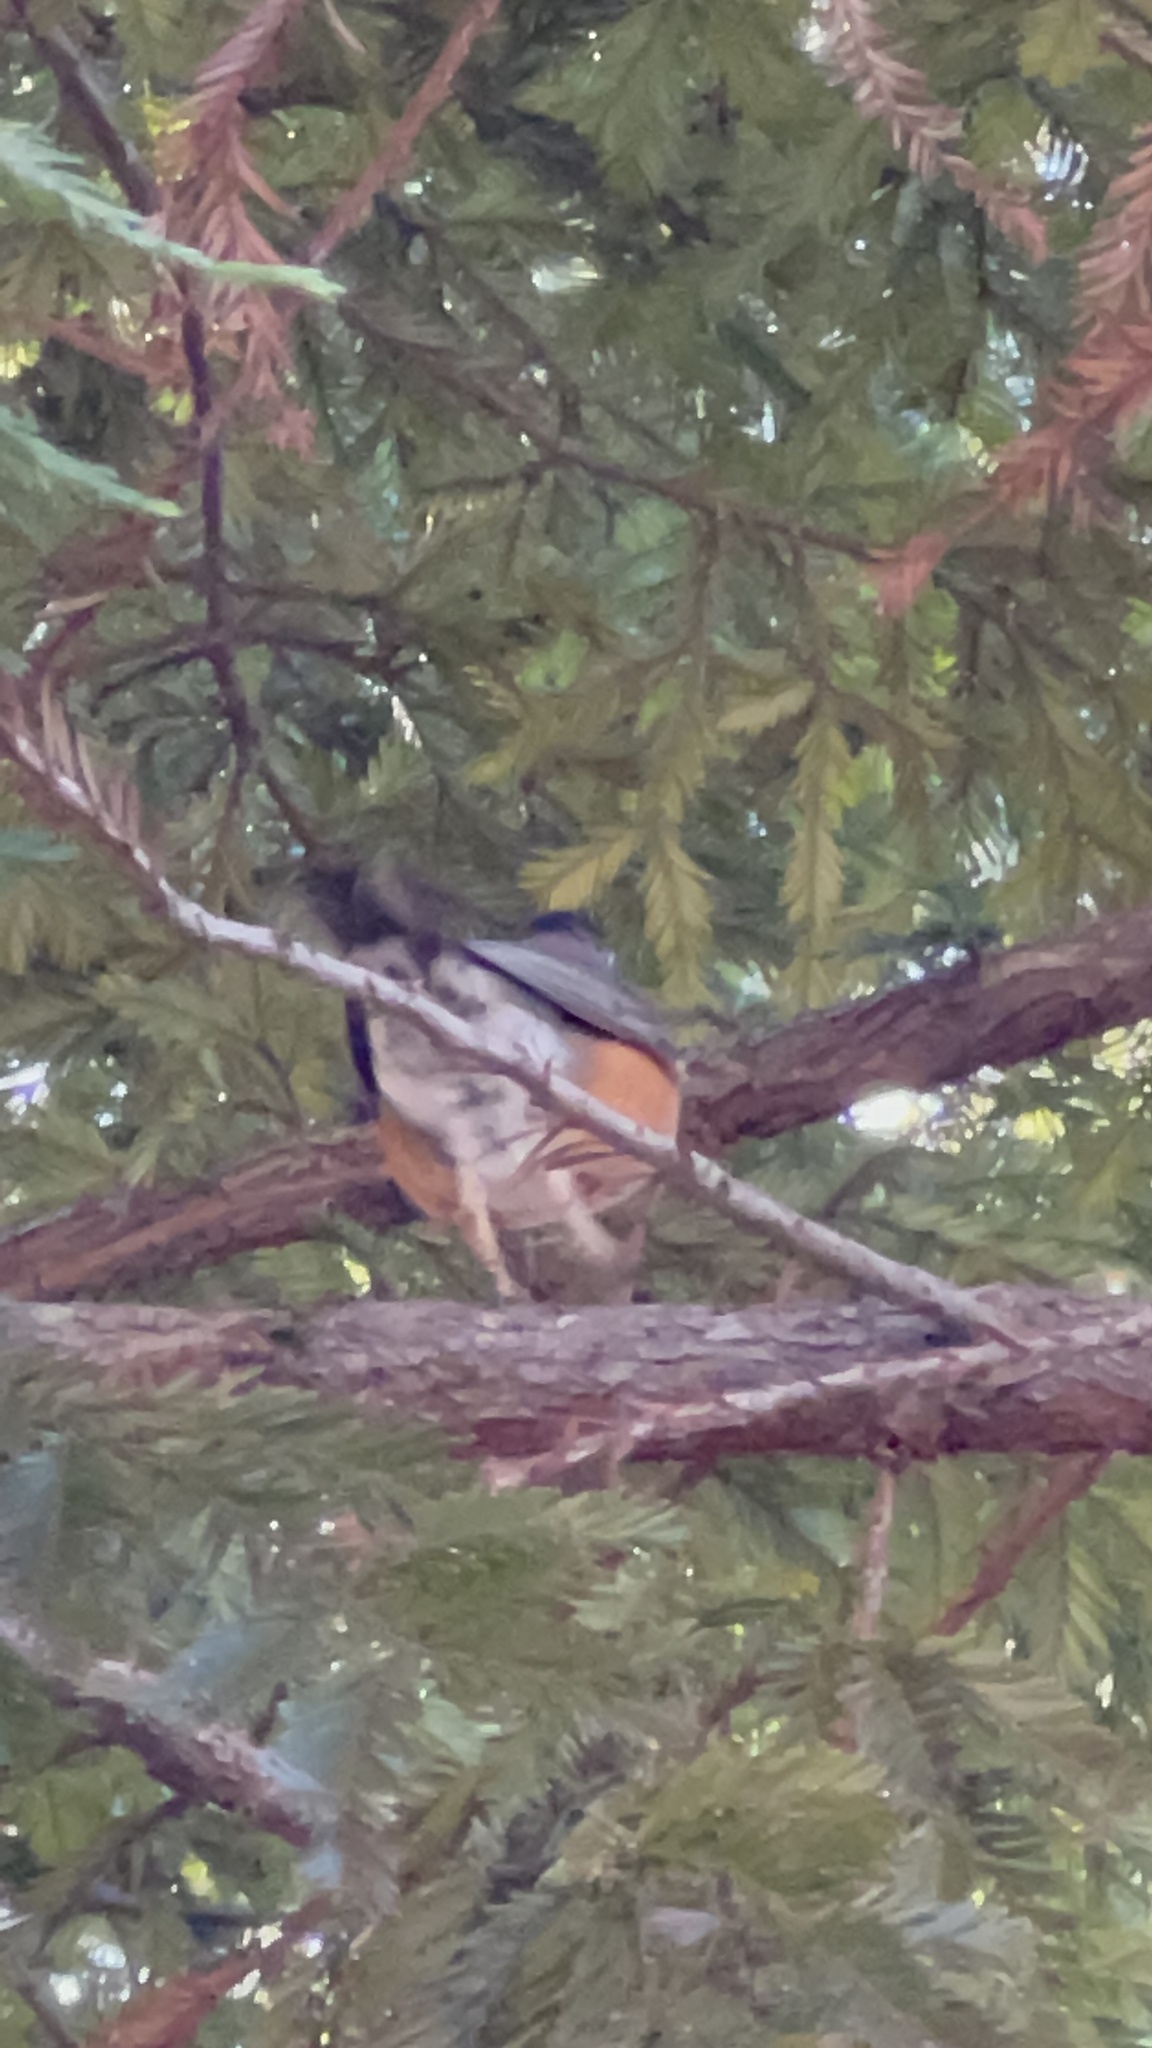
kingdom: Animalia
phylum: Chordata
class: Aves
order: Passeriformes
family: Turdidae
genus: Turdus
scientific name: Turdus migratorius
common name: American robin
